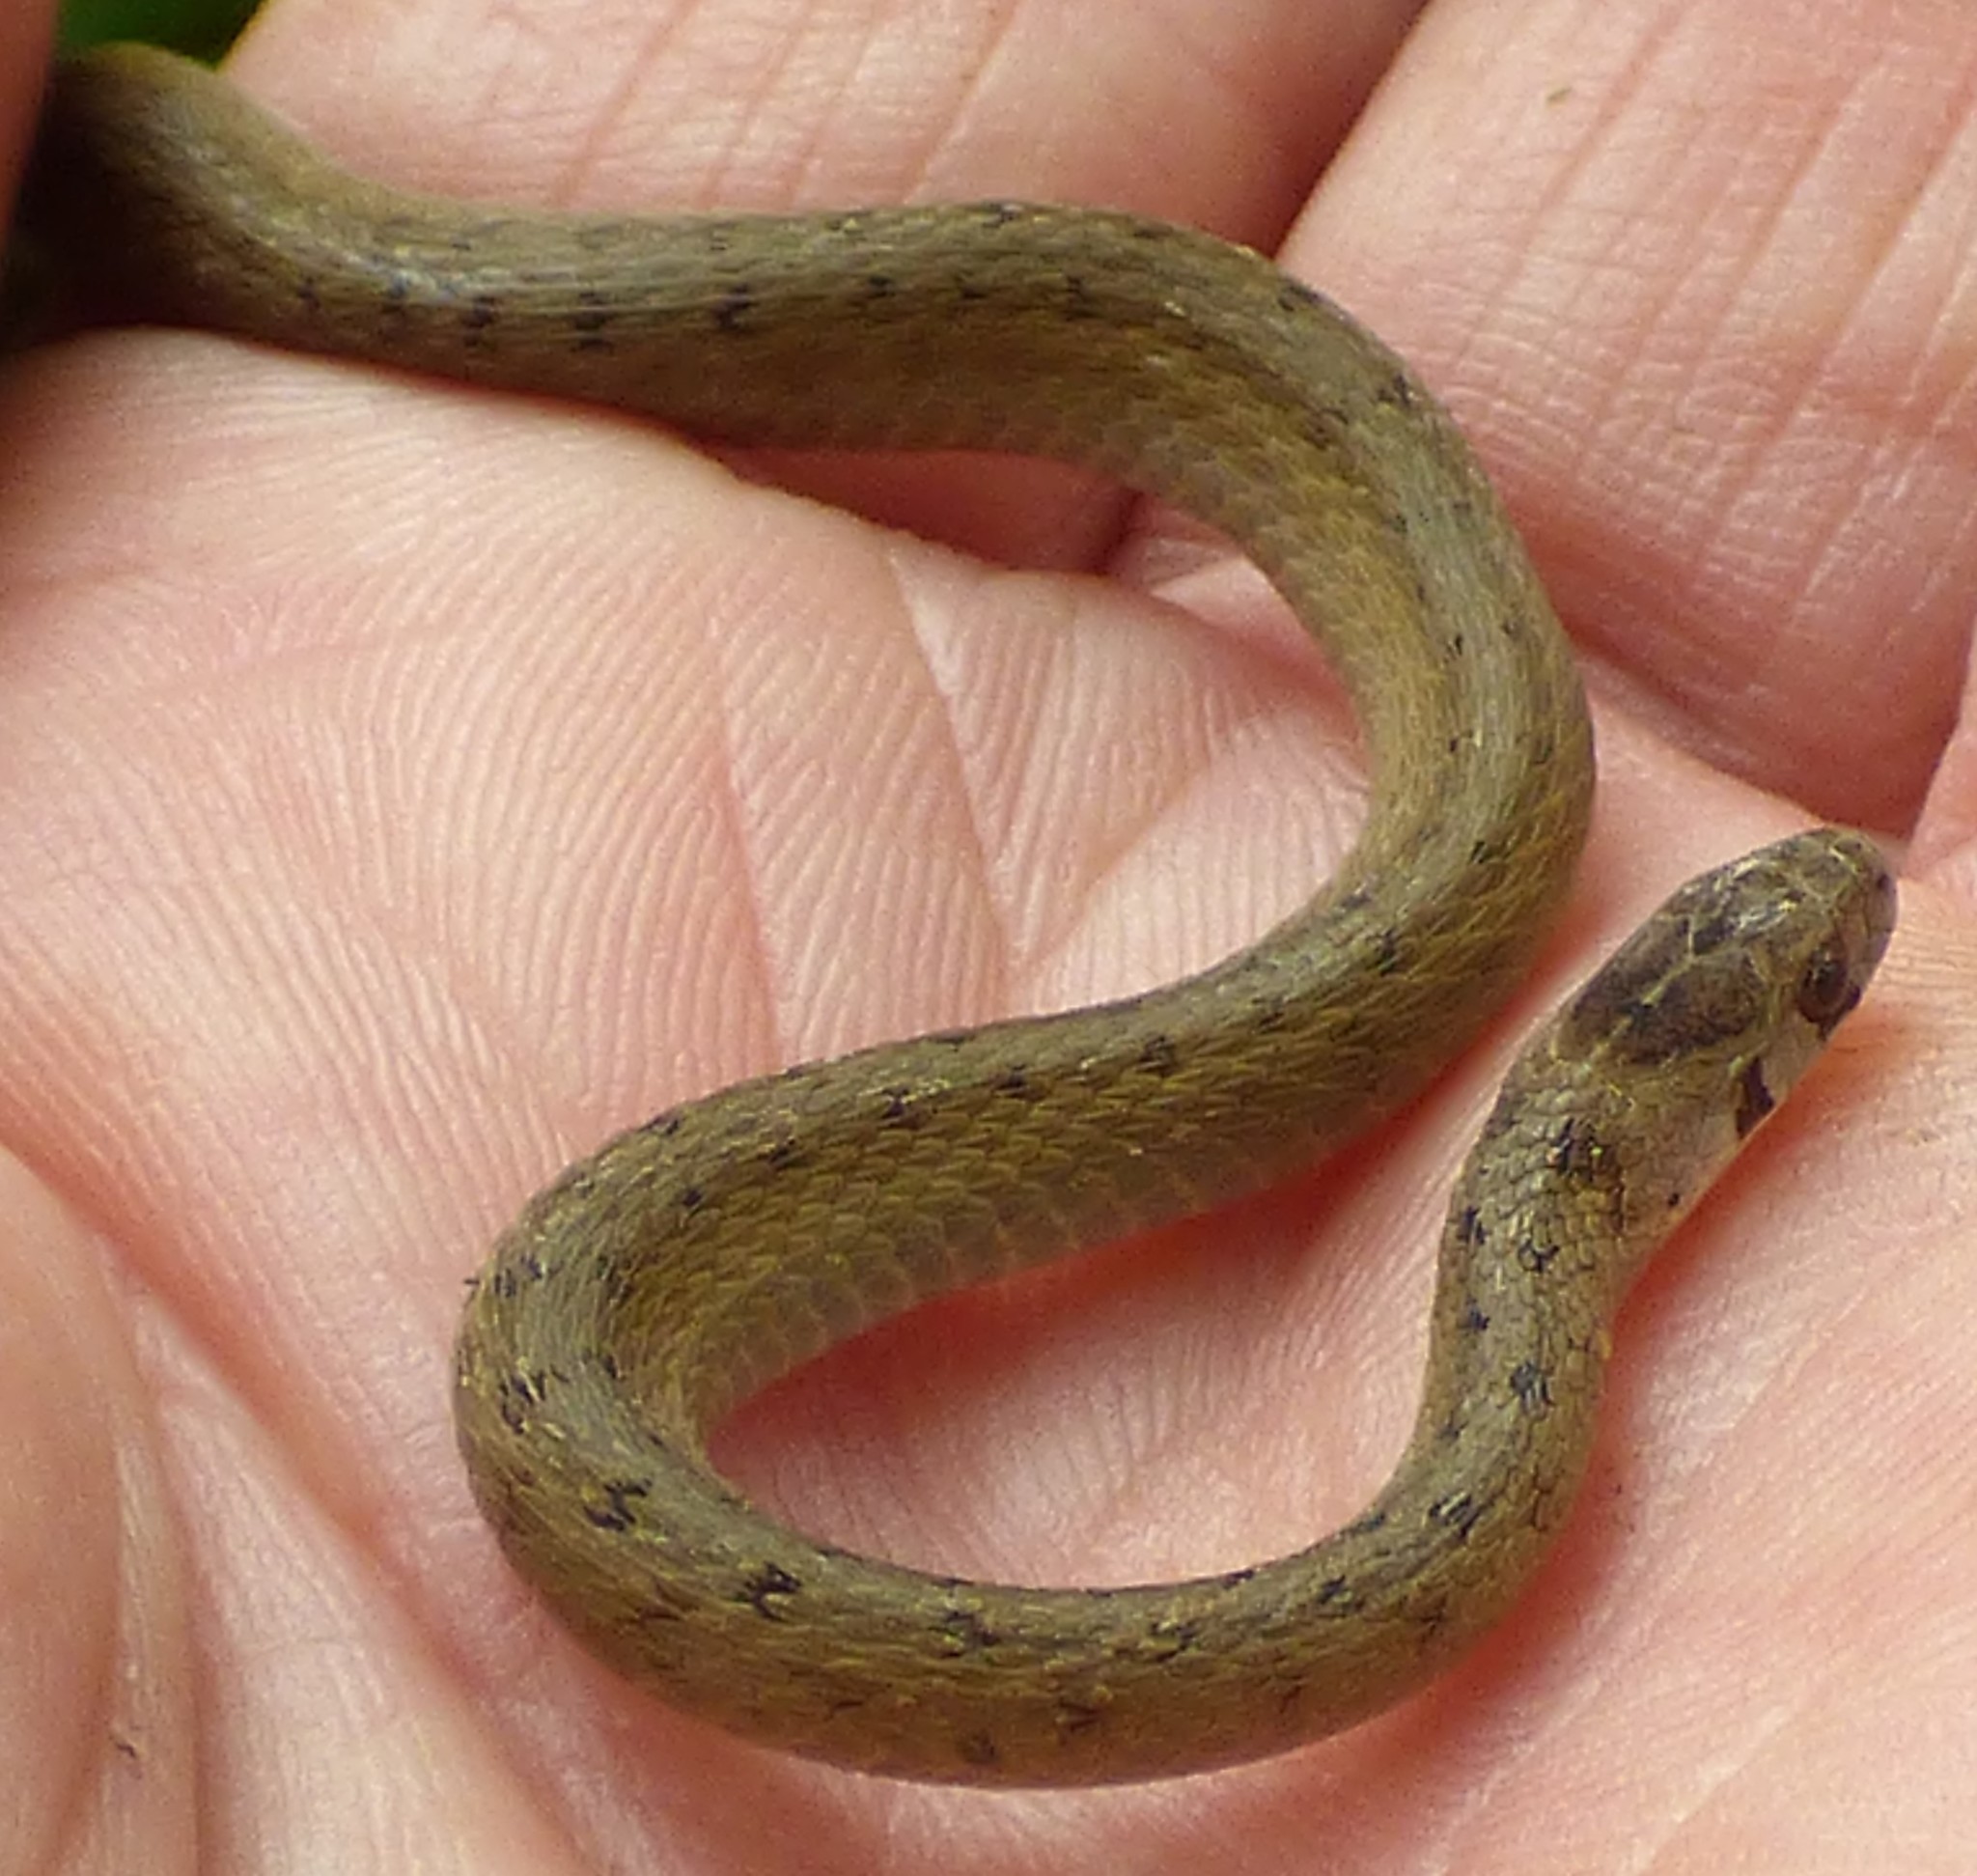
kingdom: Animalia
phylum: Chordata
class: Squamata
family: Colubridae
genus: Storeria
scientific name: Storeria dekayi
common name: (dekay’s) brown snake
